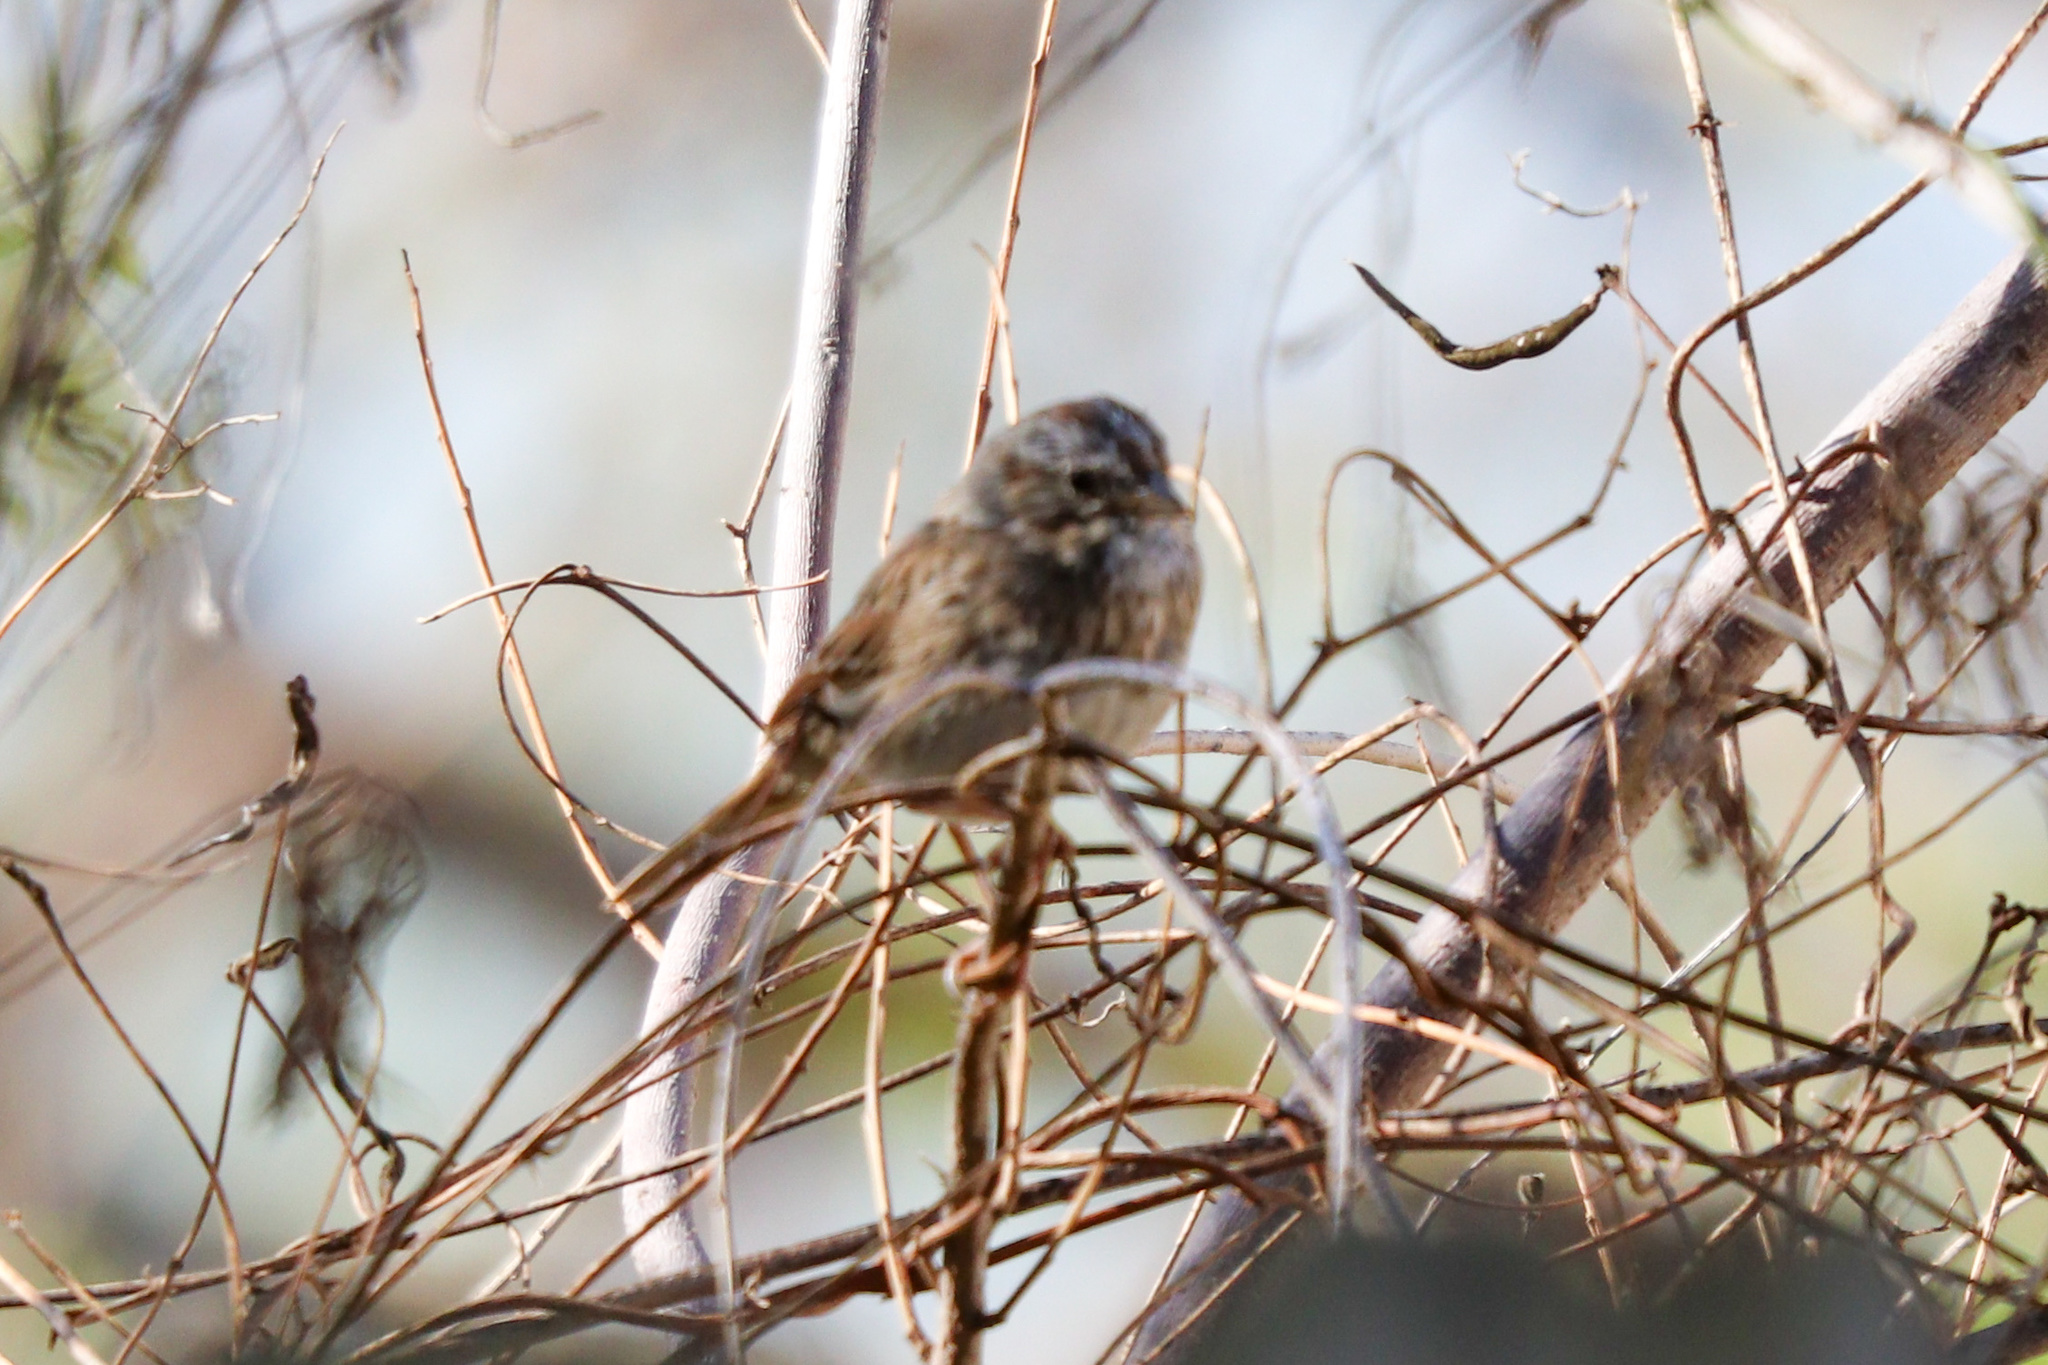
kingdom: Animalia
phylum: Chordata
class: Aves
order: Passeriformes
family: Passerellidae
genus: Melospiza
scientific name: Melospiza lincolnii
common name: Lincoln's sparrow
